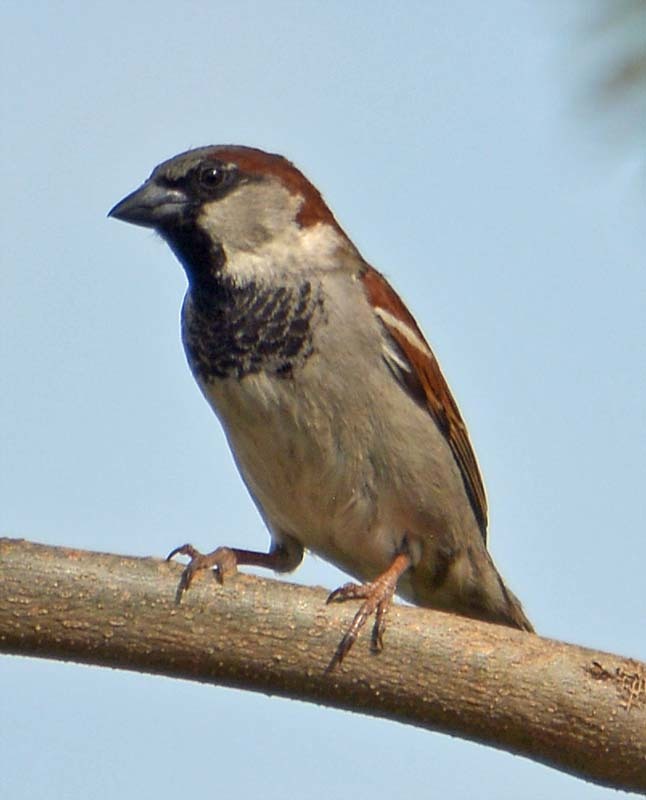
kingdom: Animalia
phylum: Chordata
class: Aves
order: Passeriformes
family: Passeridae
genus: Passer
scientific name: Passer domesticus
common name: House sparrow
